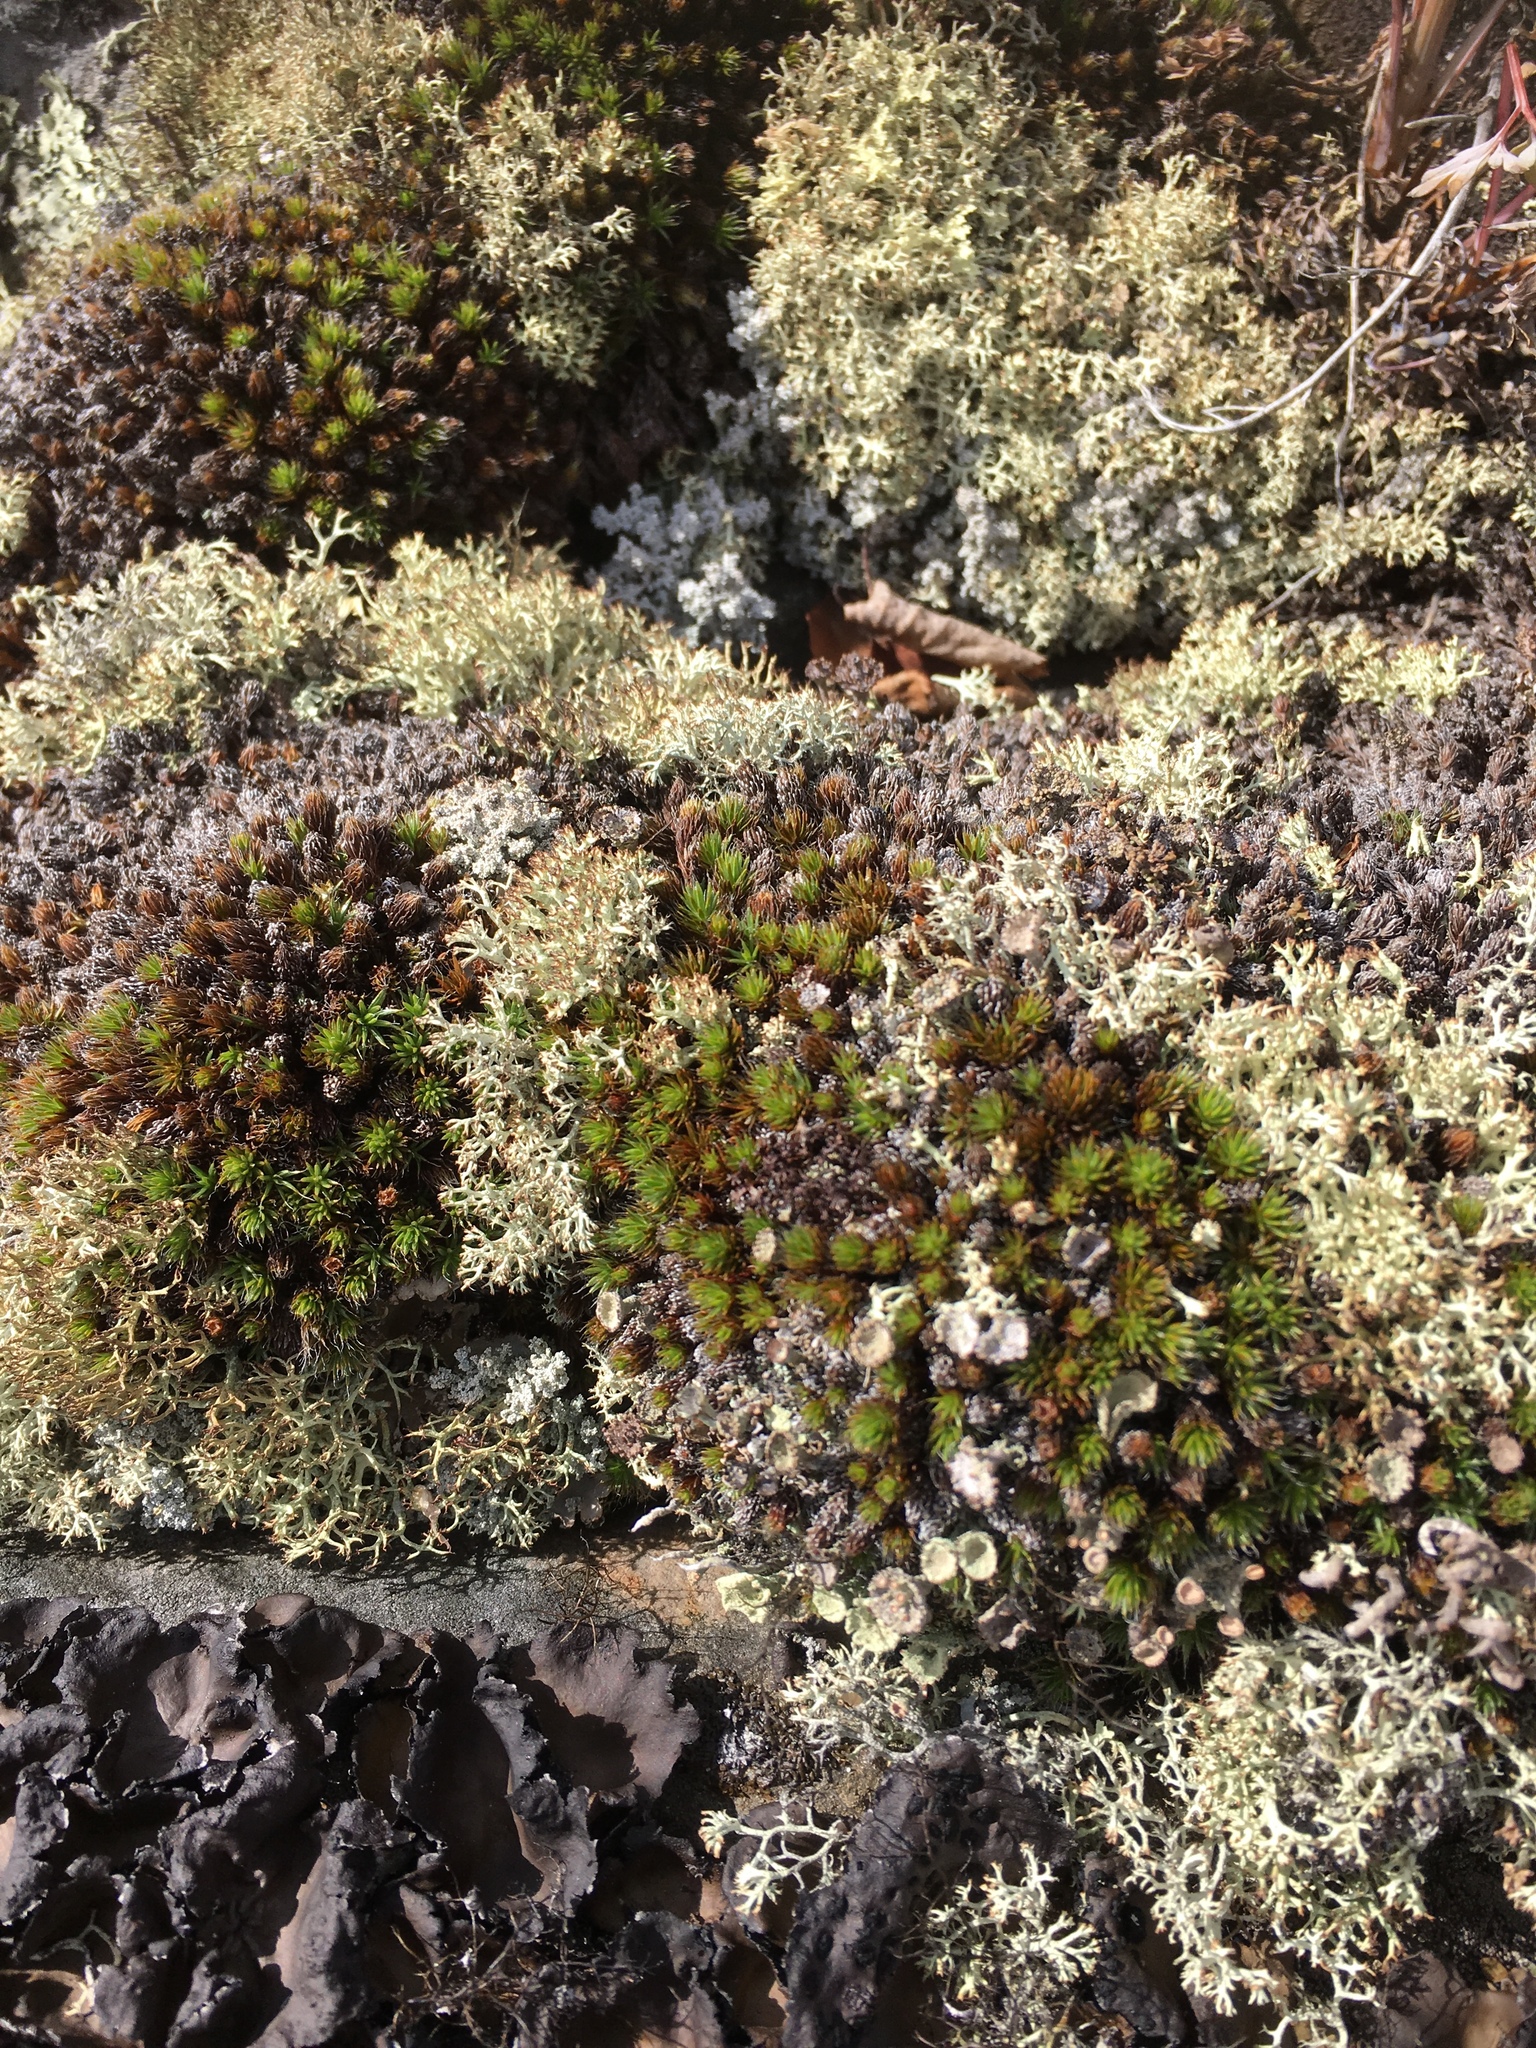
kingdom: Plantae
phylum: Bryophyta
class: Polytrichopsida
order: Polytrichales
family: Polytrichaceae
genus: Polytrichum
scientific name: Polytrichum piliferum
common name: Bristly haircap
